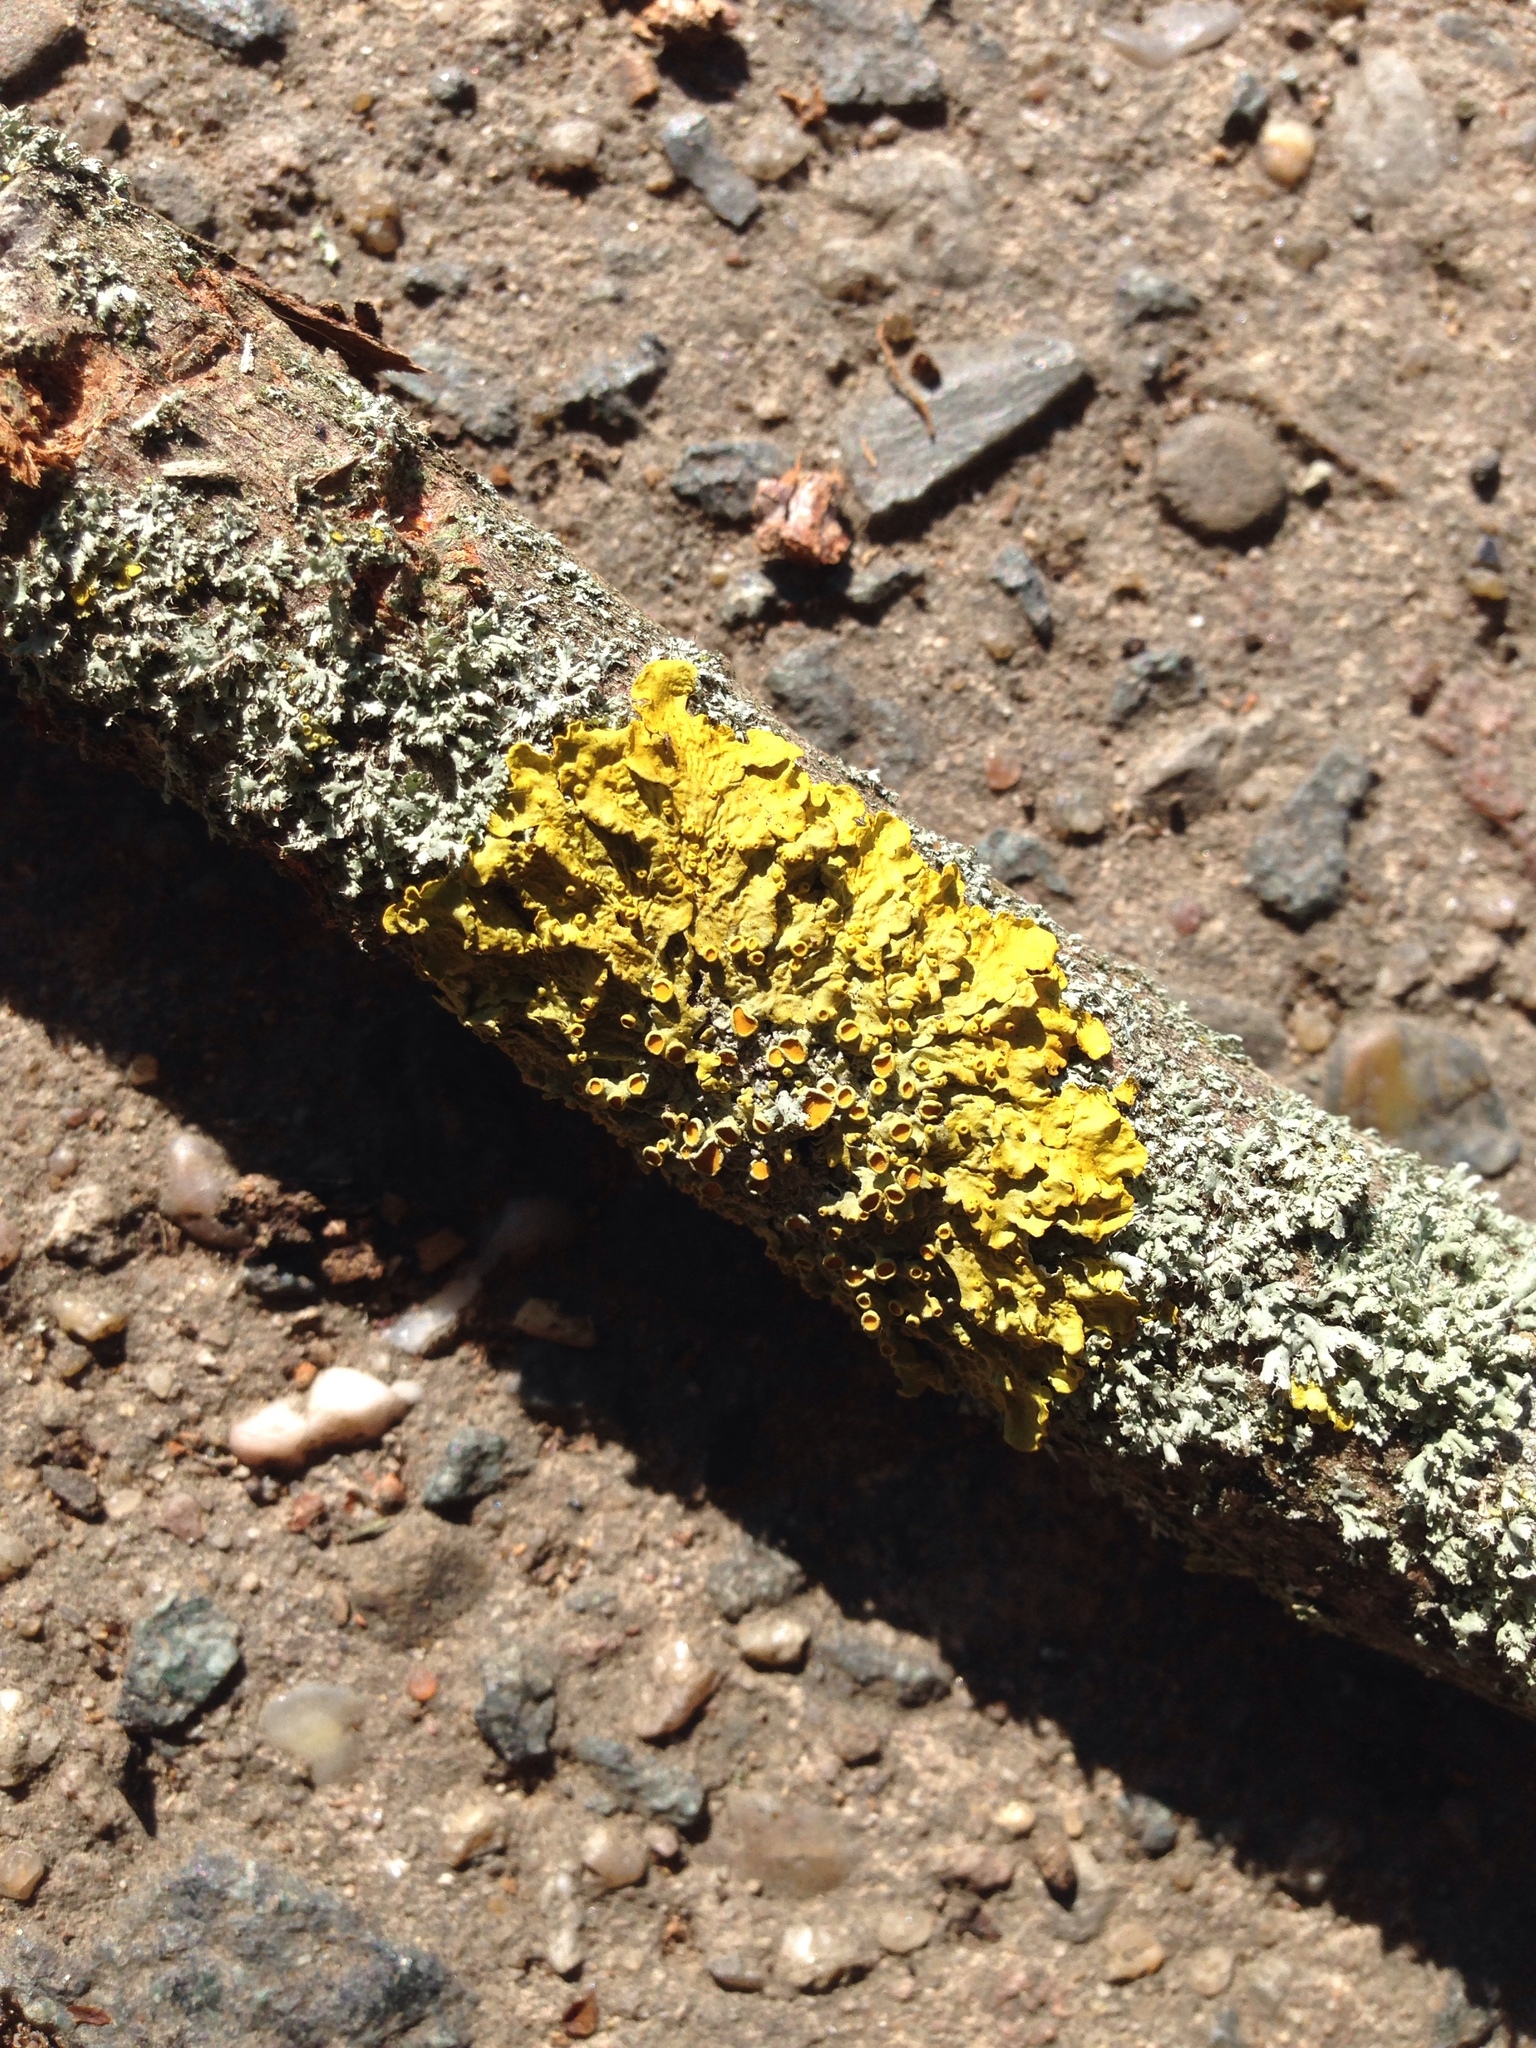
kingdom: Fungi
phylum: Ascomycota
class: Lecanoromycetes
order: Teloschistales
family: Teloschistaceae
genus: Xanthoria
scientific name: Xanthoria parietina
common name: Common orange lichen
